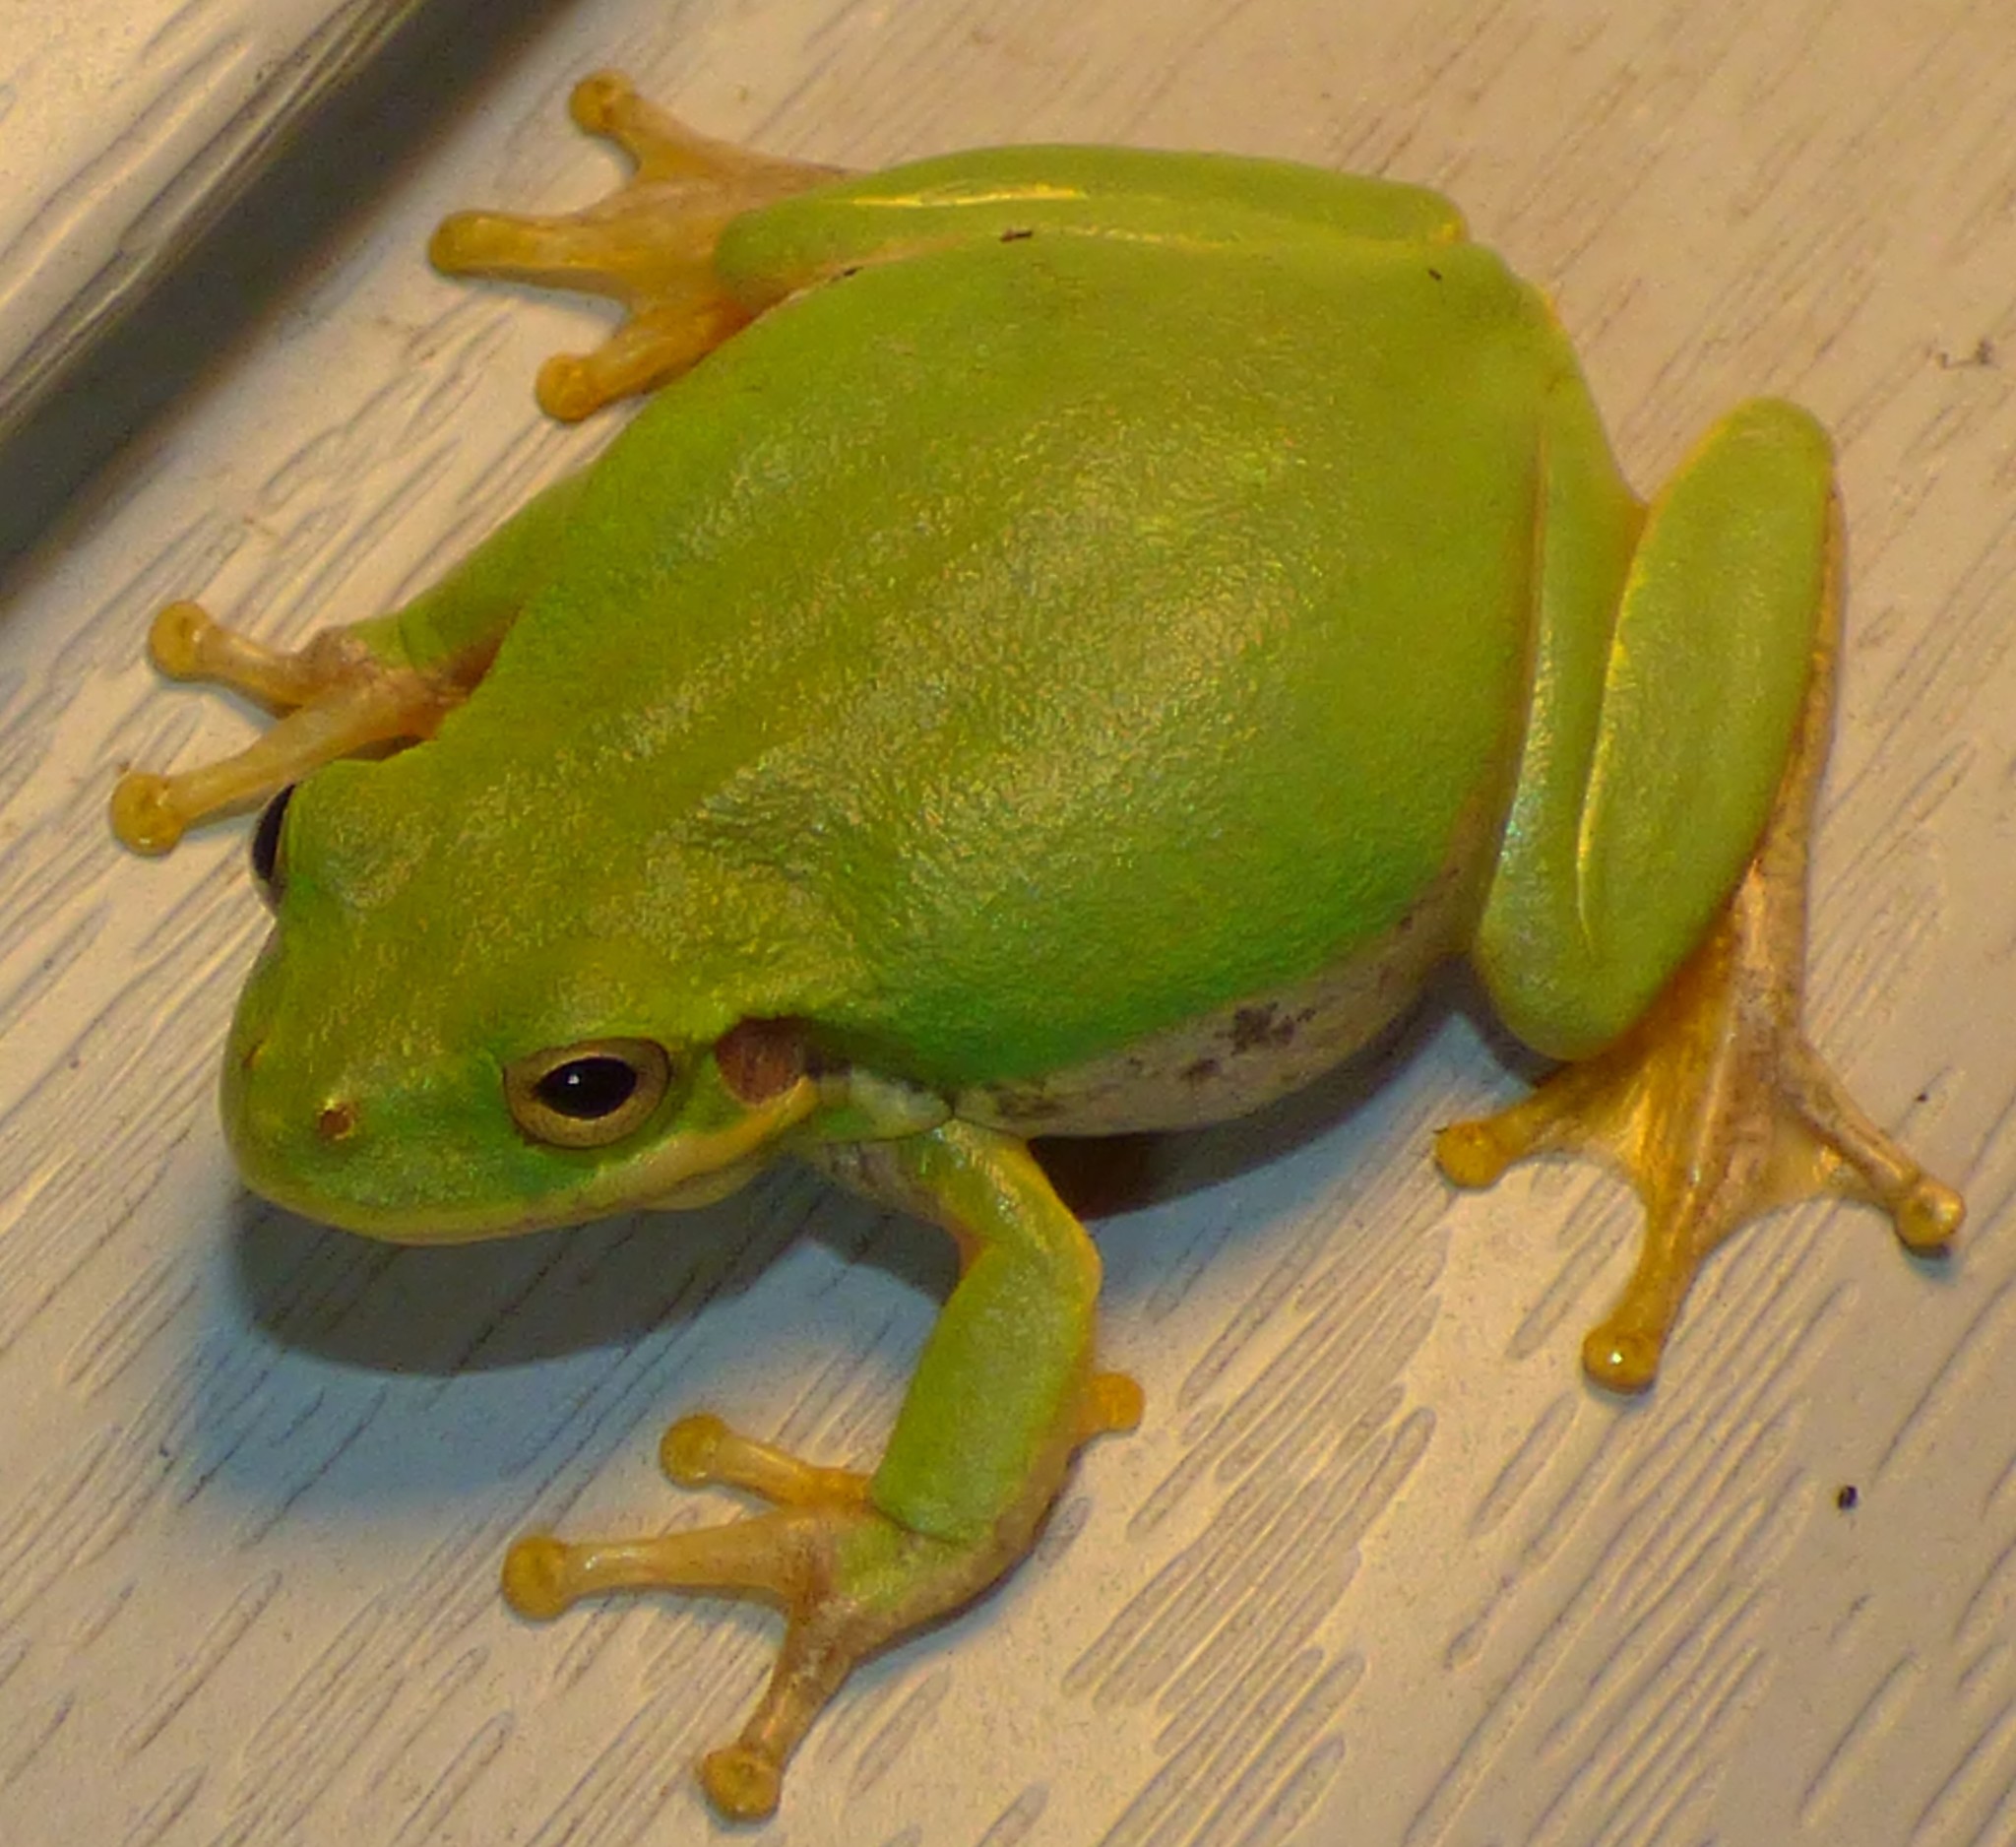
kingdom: Animalia
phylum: Chordata
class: Amphibia
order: Anura
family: Hylidae
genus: Dryophytes
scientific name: Dryophytes squirellus
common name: Squirrel treefrog
